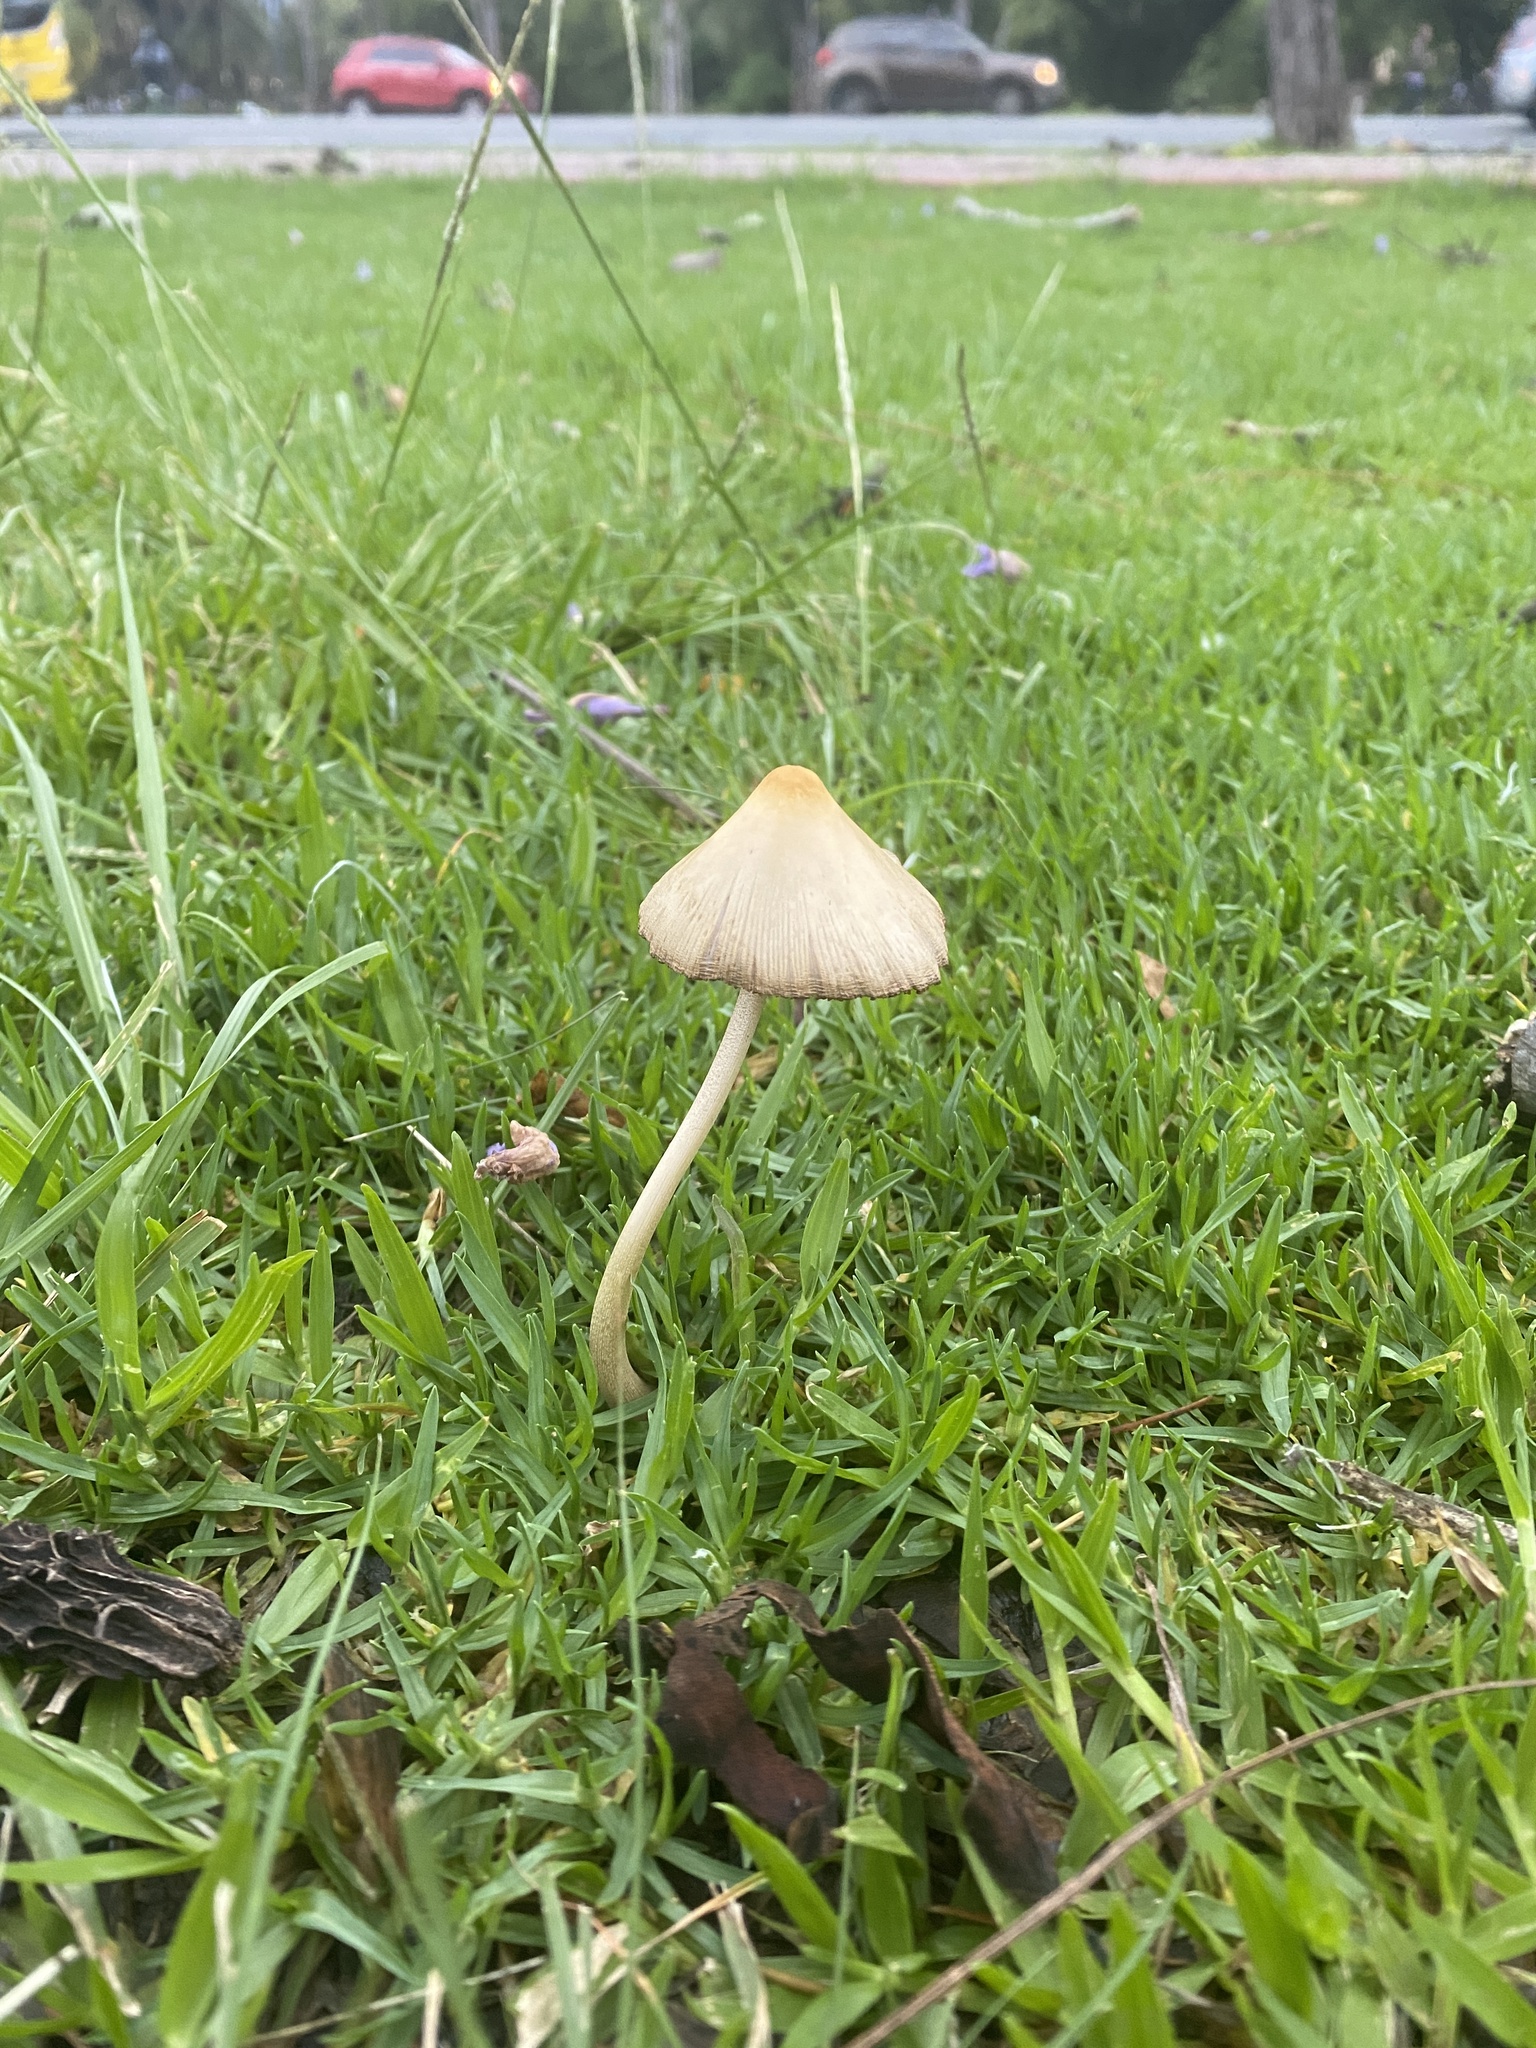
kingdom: Fungi
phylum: Basidiomycota
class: Agaricomycetes
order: Agaricales
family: Bolbitiaceae
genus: Conocybe
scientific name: Conocybe apala
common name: Milky conecap
